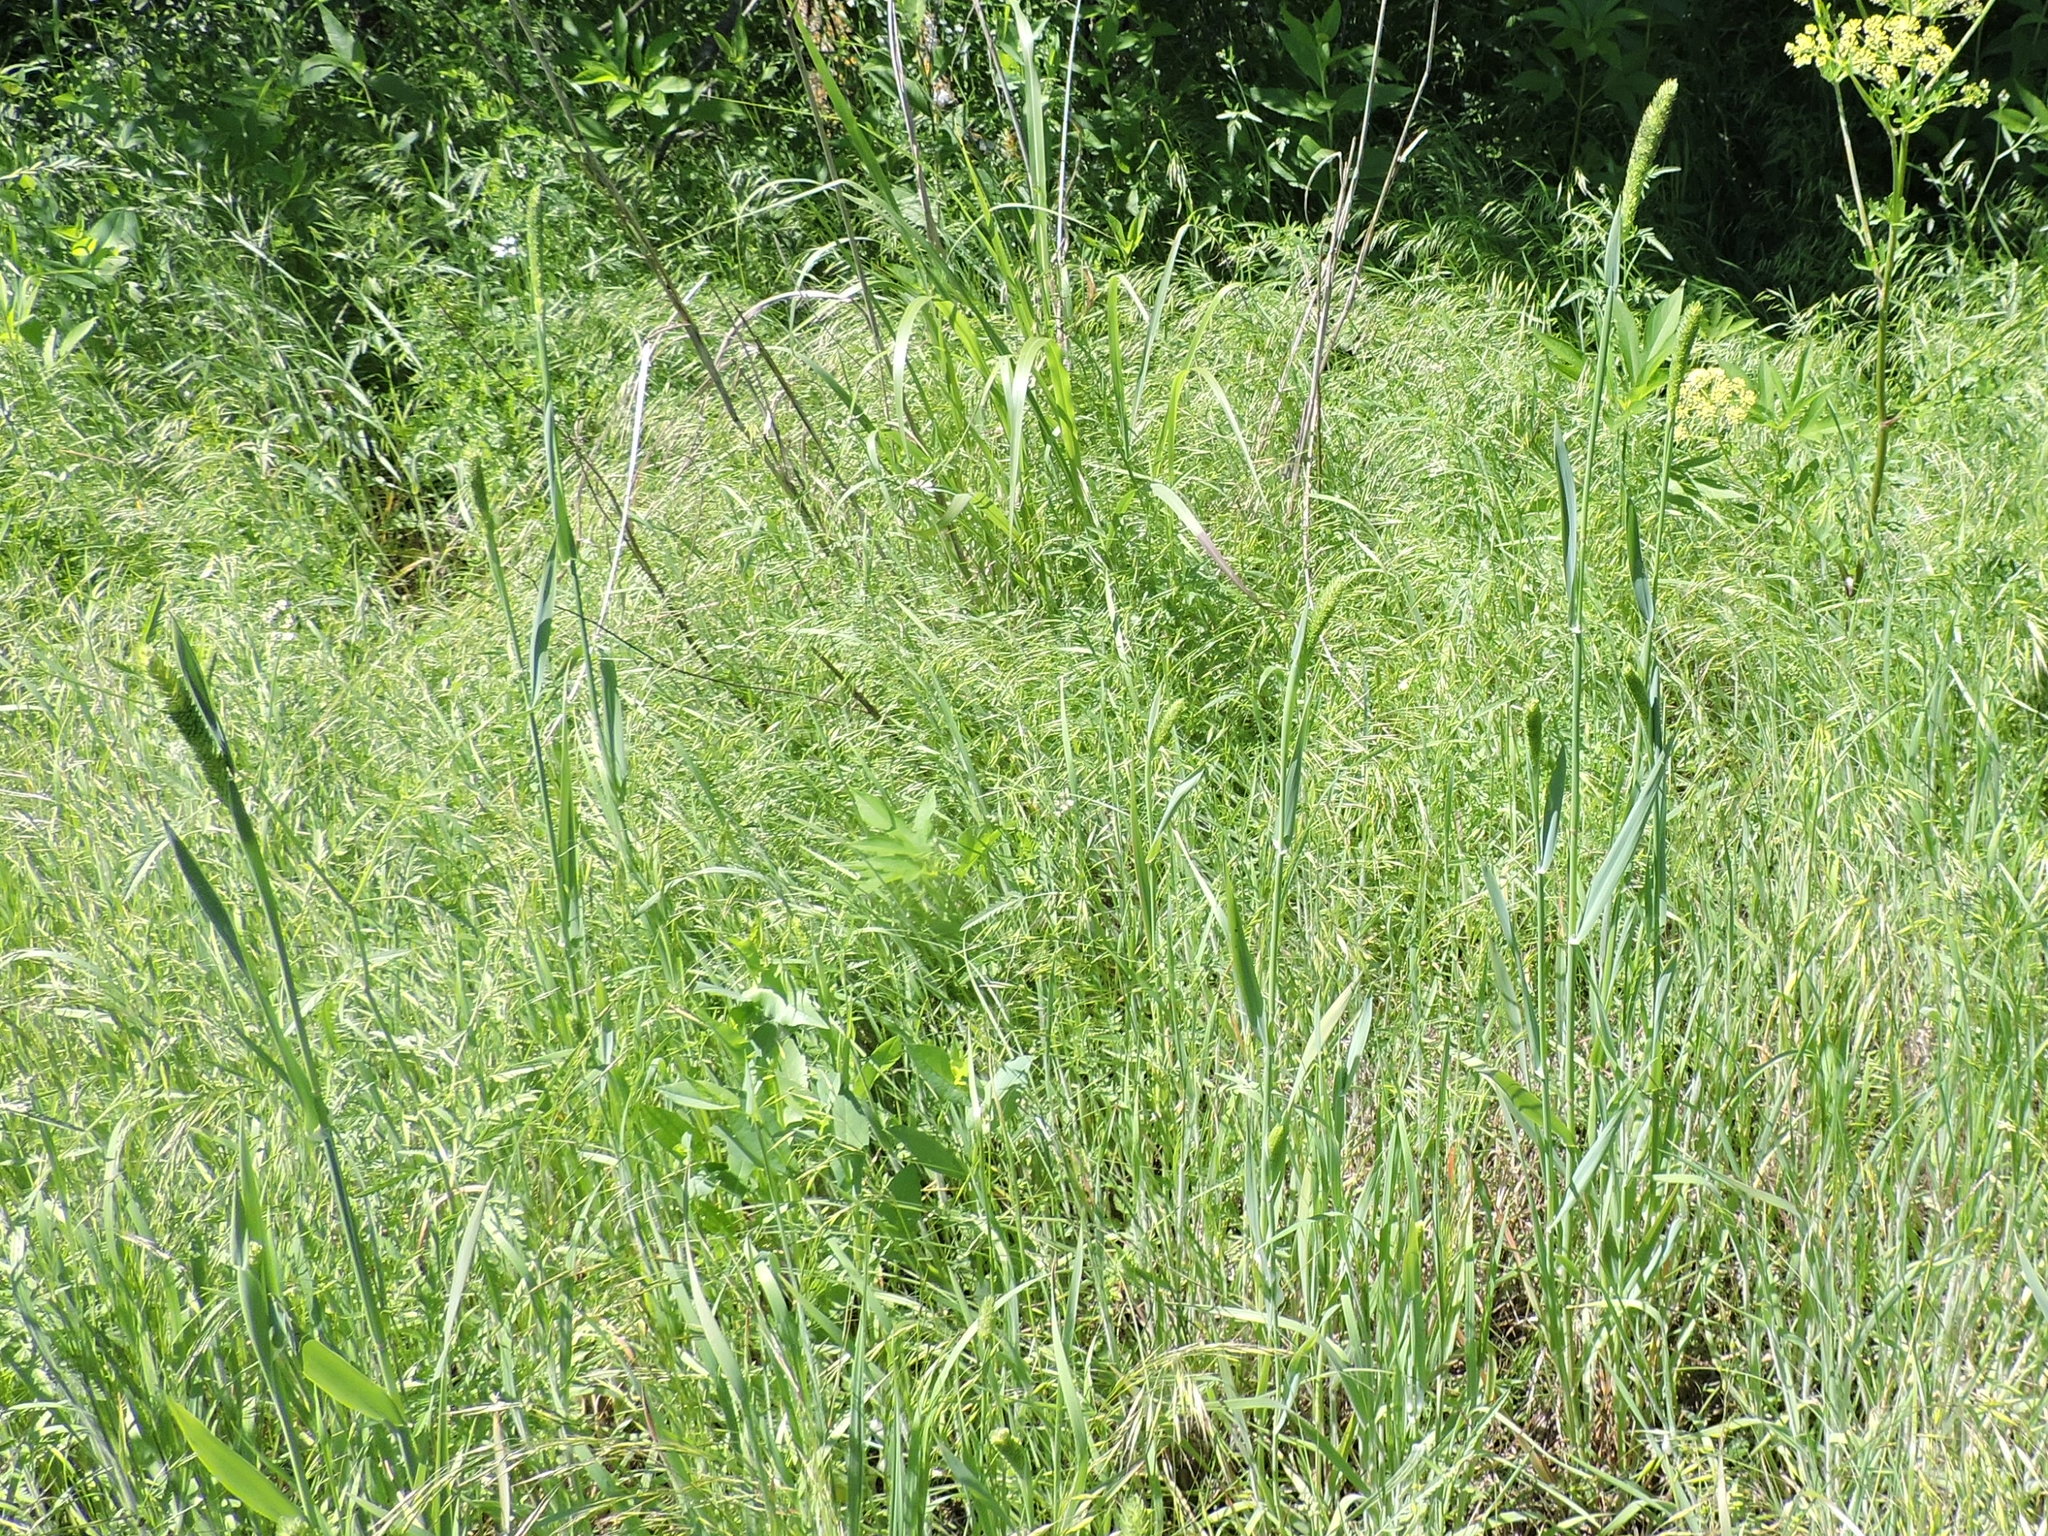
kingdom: Plantae
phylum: Tracheophyta
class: Liliopsida
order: Poales
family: Poaceae
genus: Phalaris
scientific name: Phalaris caroliniana
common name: May grass
